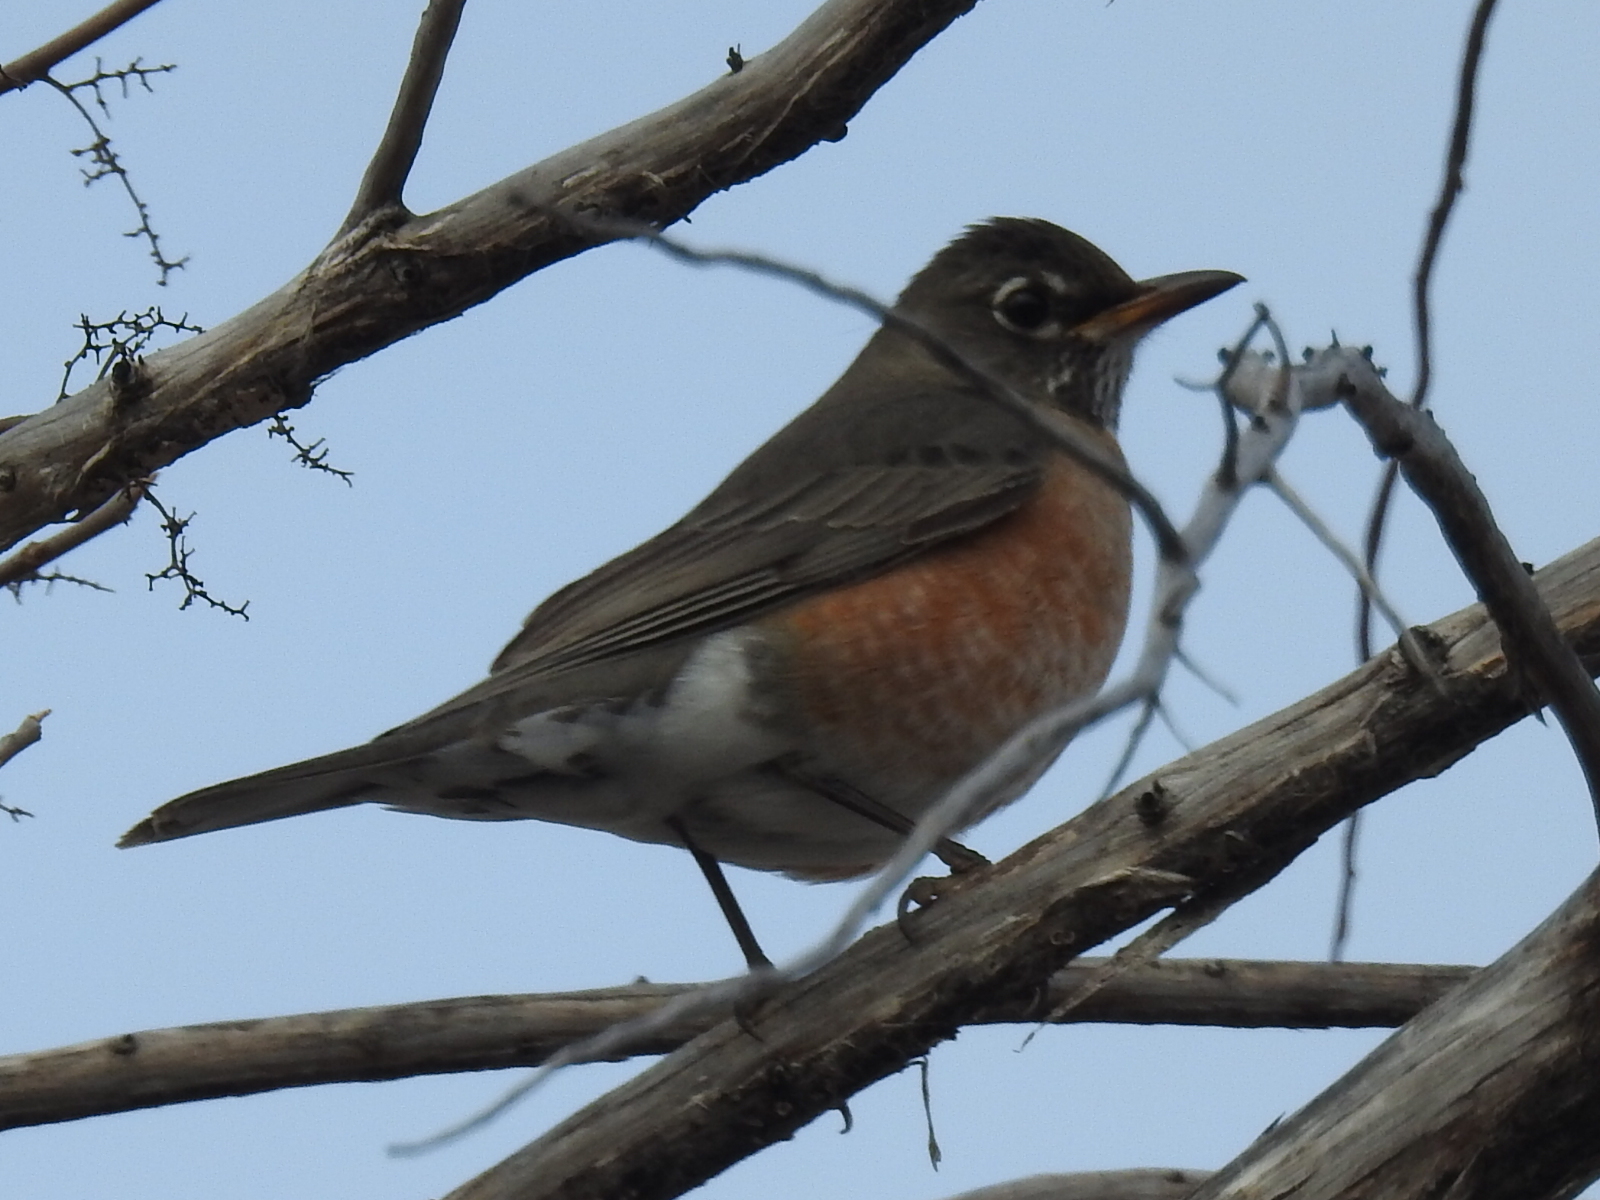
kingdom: Animalia
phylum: Chordata
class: Aves
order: Passeriformes
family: Turdidae
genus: Turdus
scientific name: Turdus migratorius
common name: American robin
